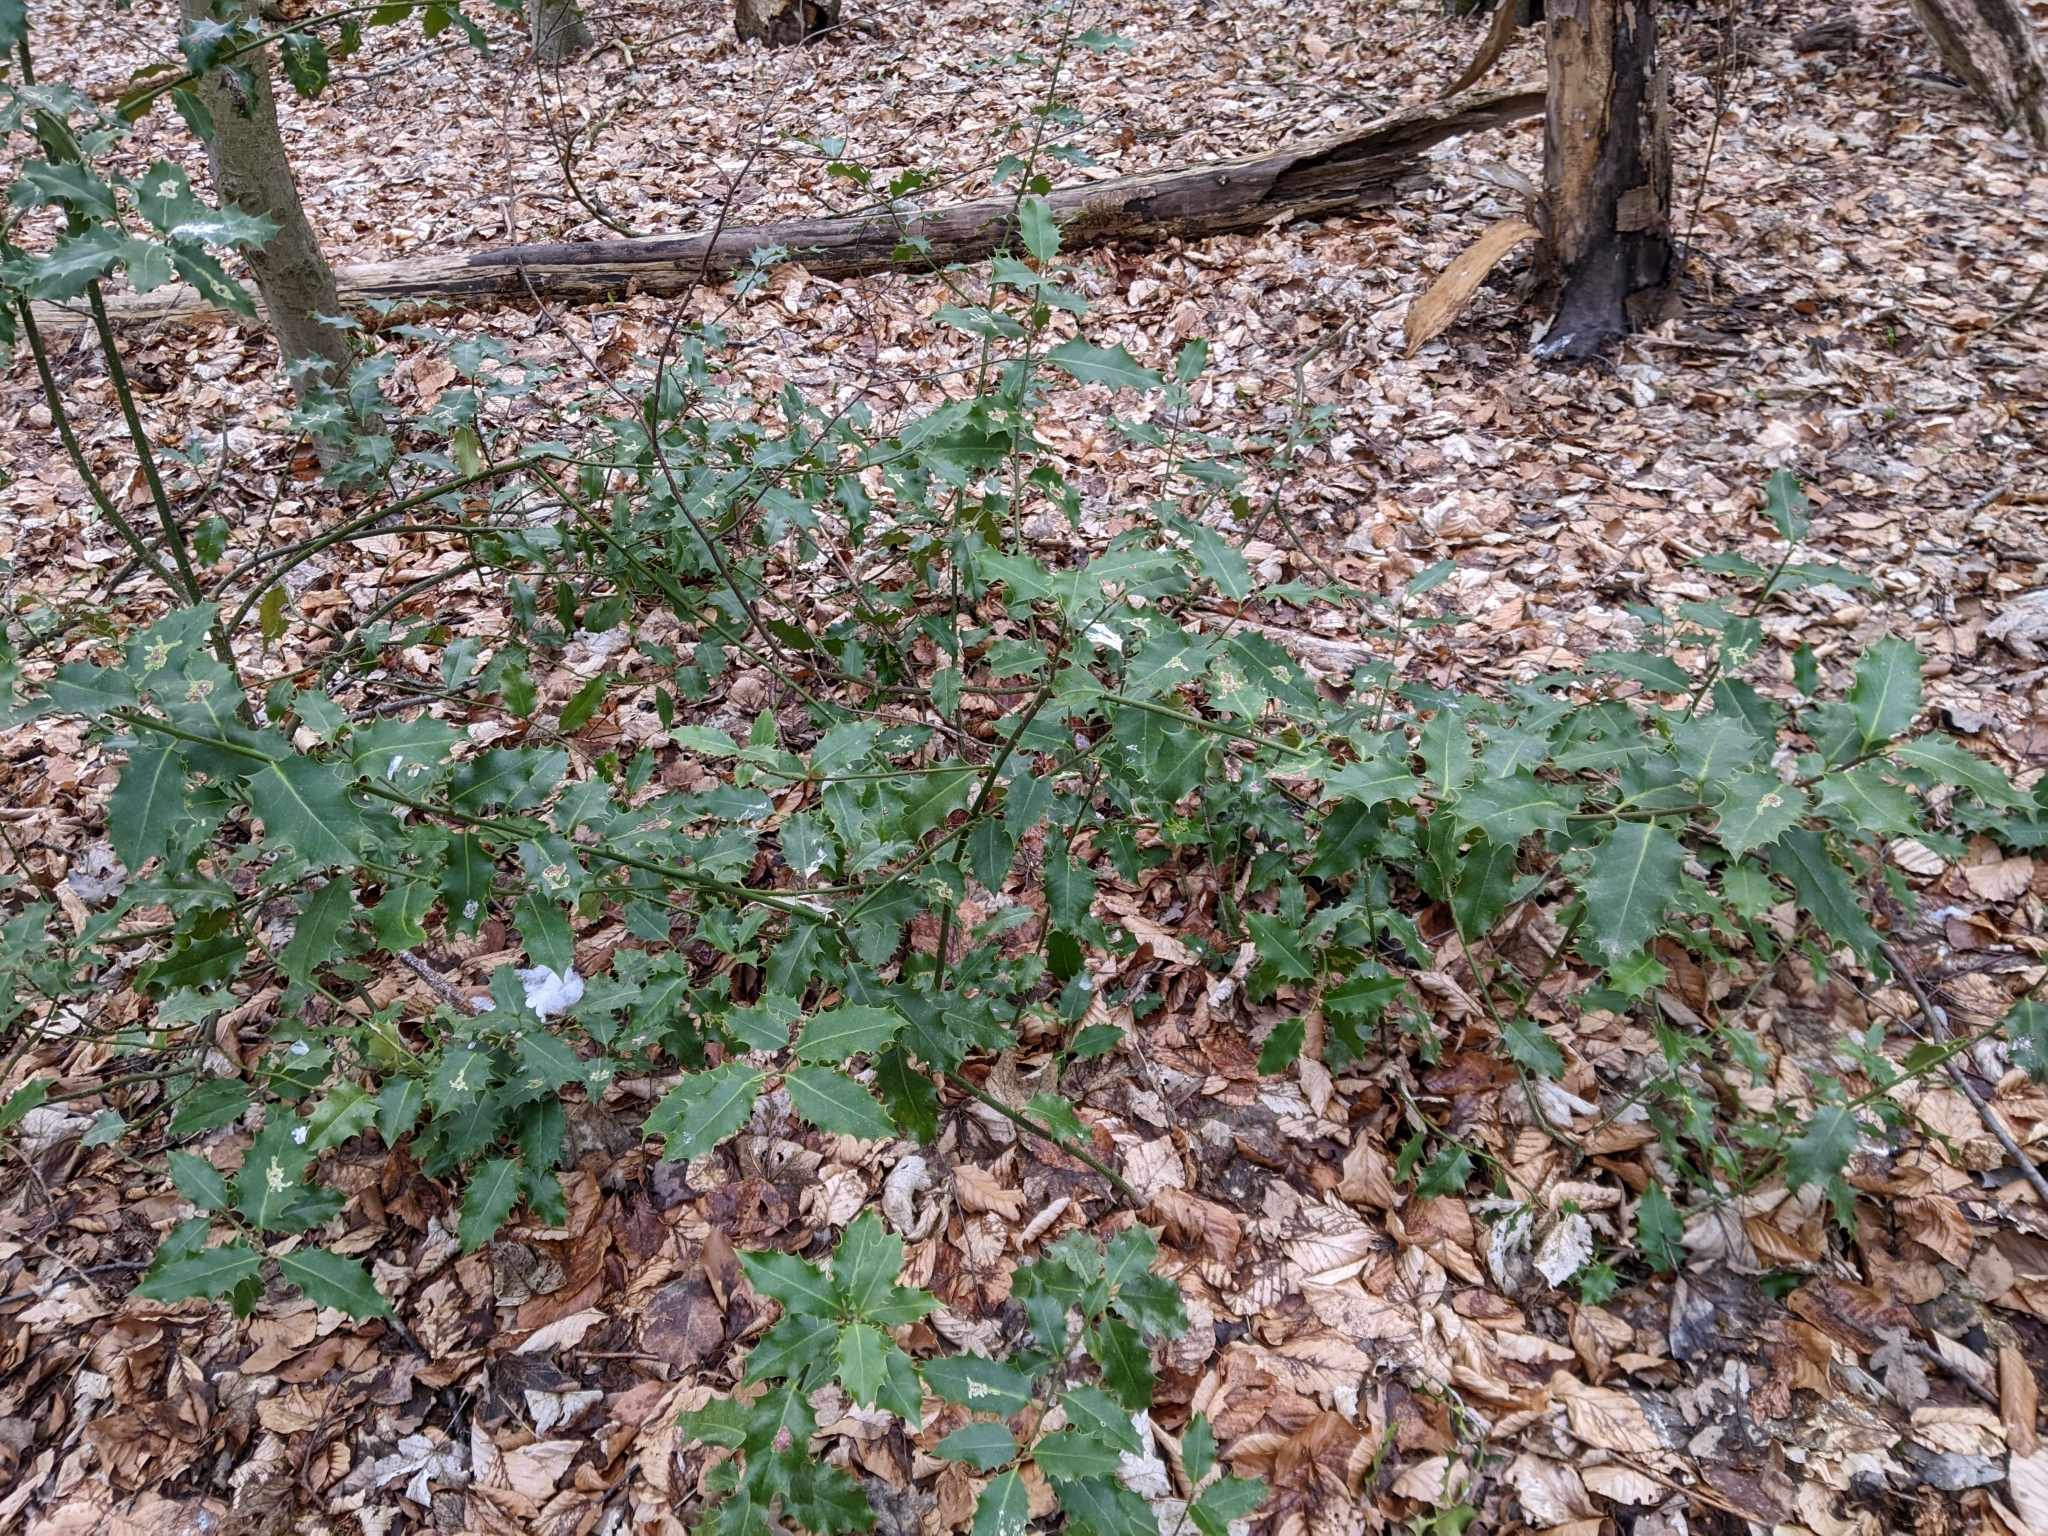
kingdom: Plantae
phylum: Tracheophyta
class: Magnoliopsida
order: Aquifoliales
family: Aquifoliaceae
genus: Ilex
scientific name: Ilex aquifolium
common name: English holly
